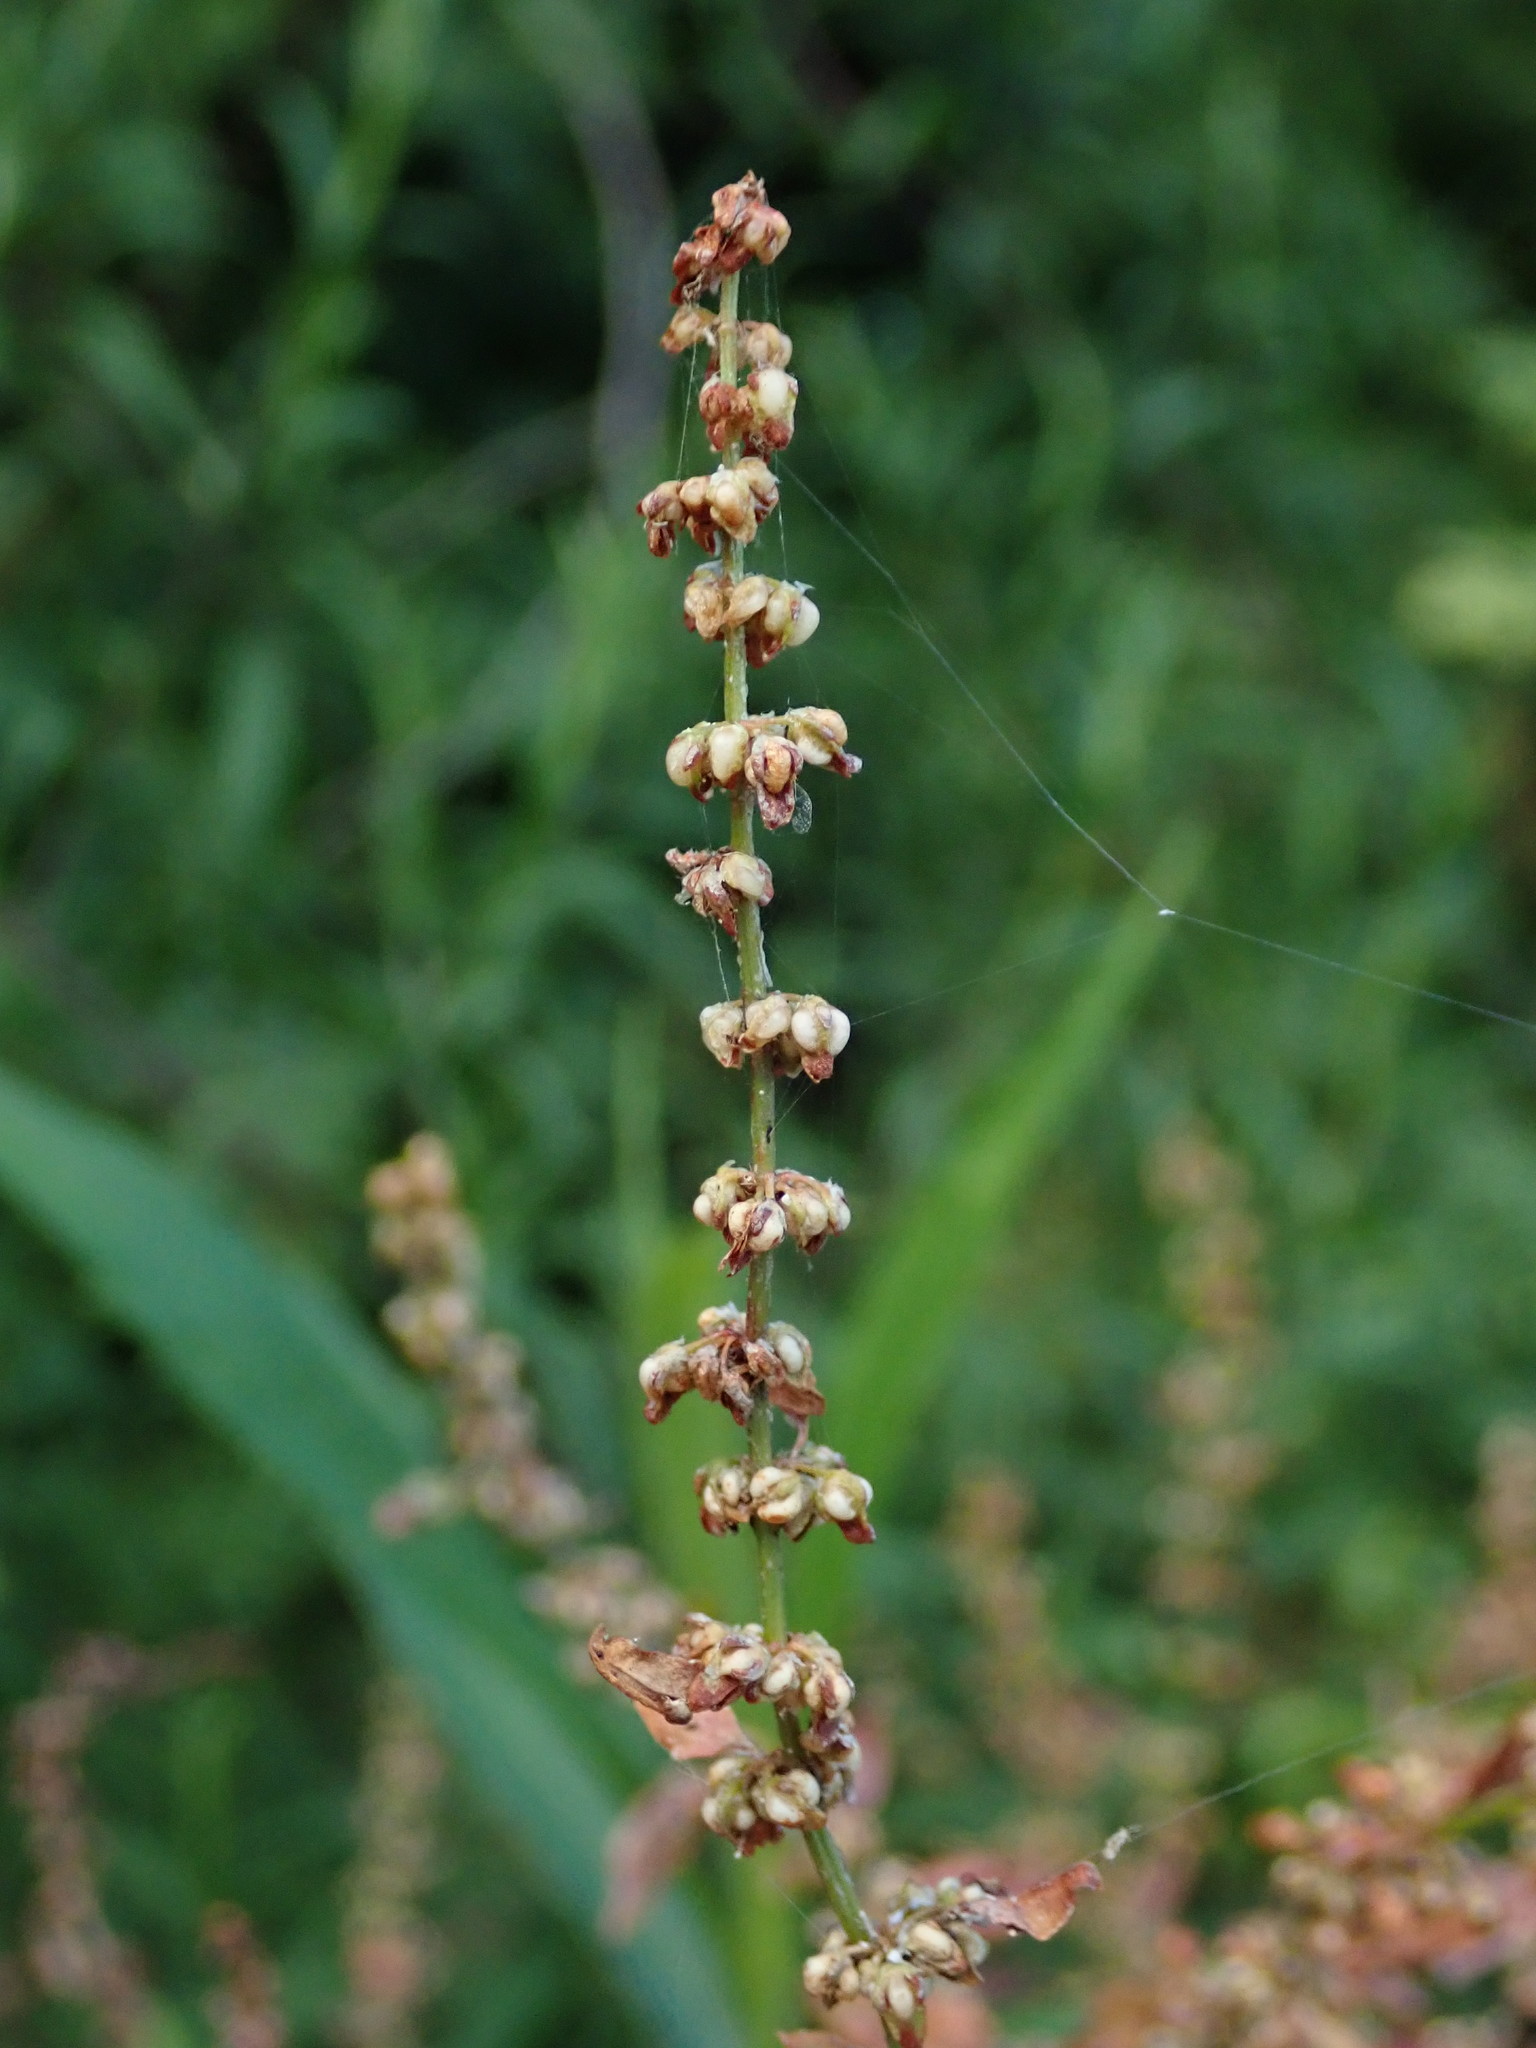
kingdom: Plantae
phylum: Tracheophyta
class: Magnoliopsida
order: Caryophyllales
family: Polygonaceae
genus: Rumex
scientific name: Rumex conglomeratus
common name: Clustered dock
